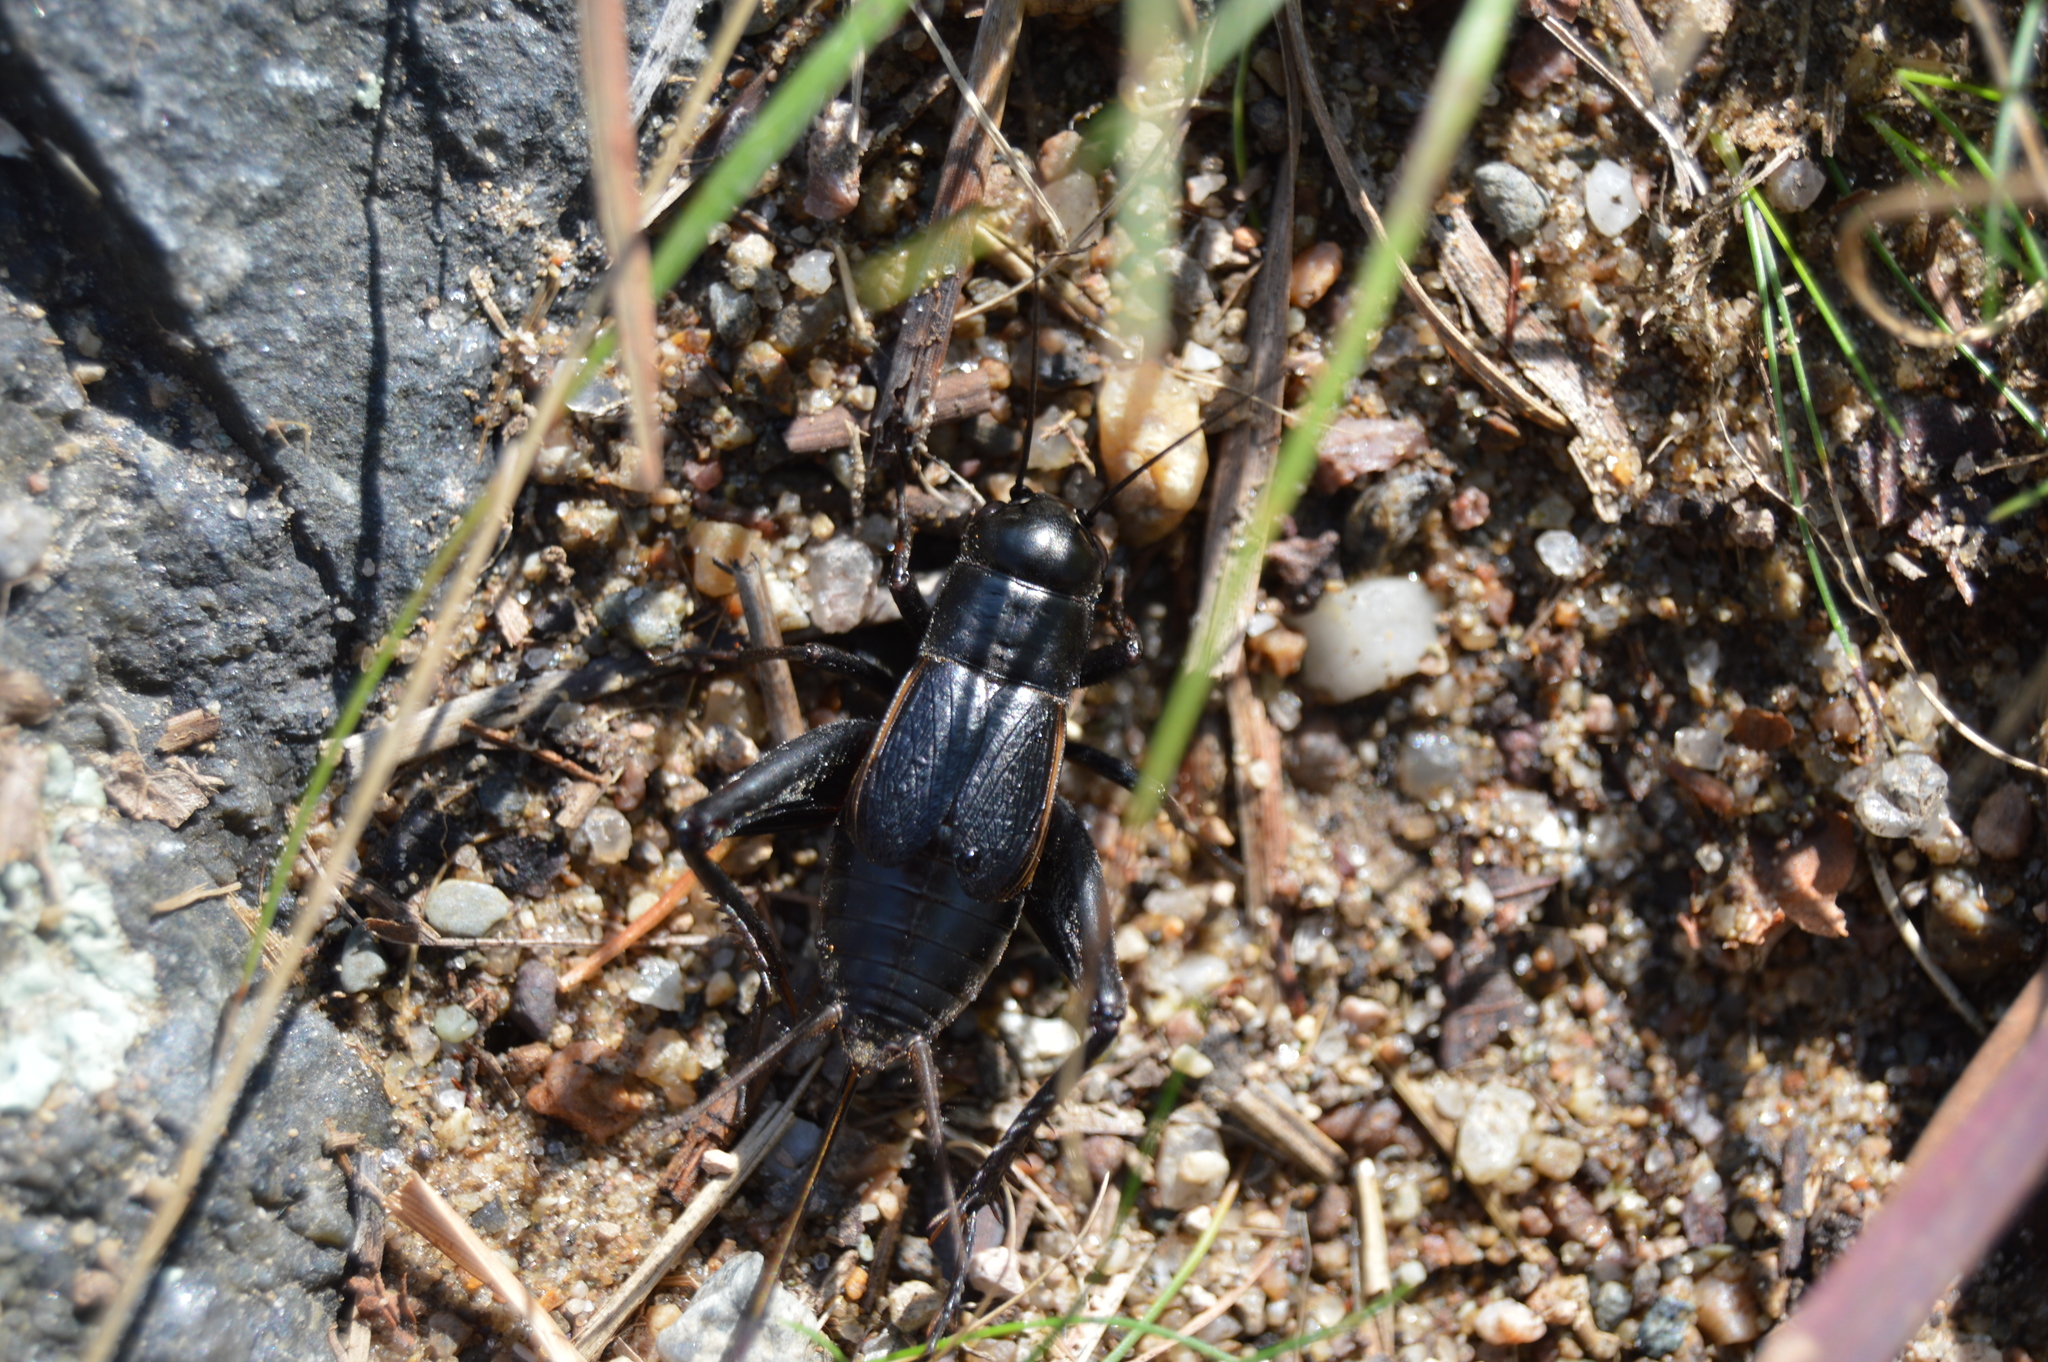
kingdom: Animalia
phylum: Arthropoda
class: Insecta
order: Orthoptera
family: Gryllidae
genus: Gryllus
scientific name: Gryllus pennsylvanicus
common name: Fall field cricket
